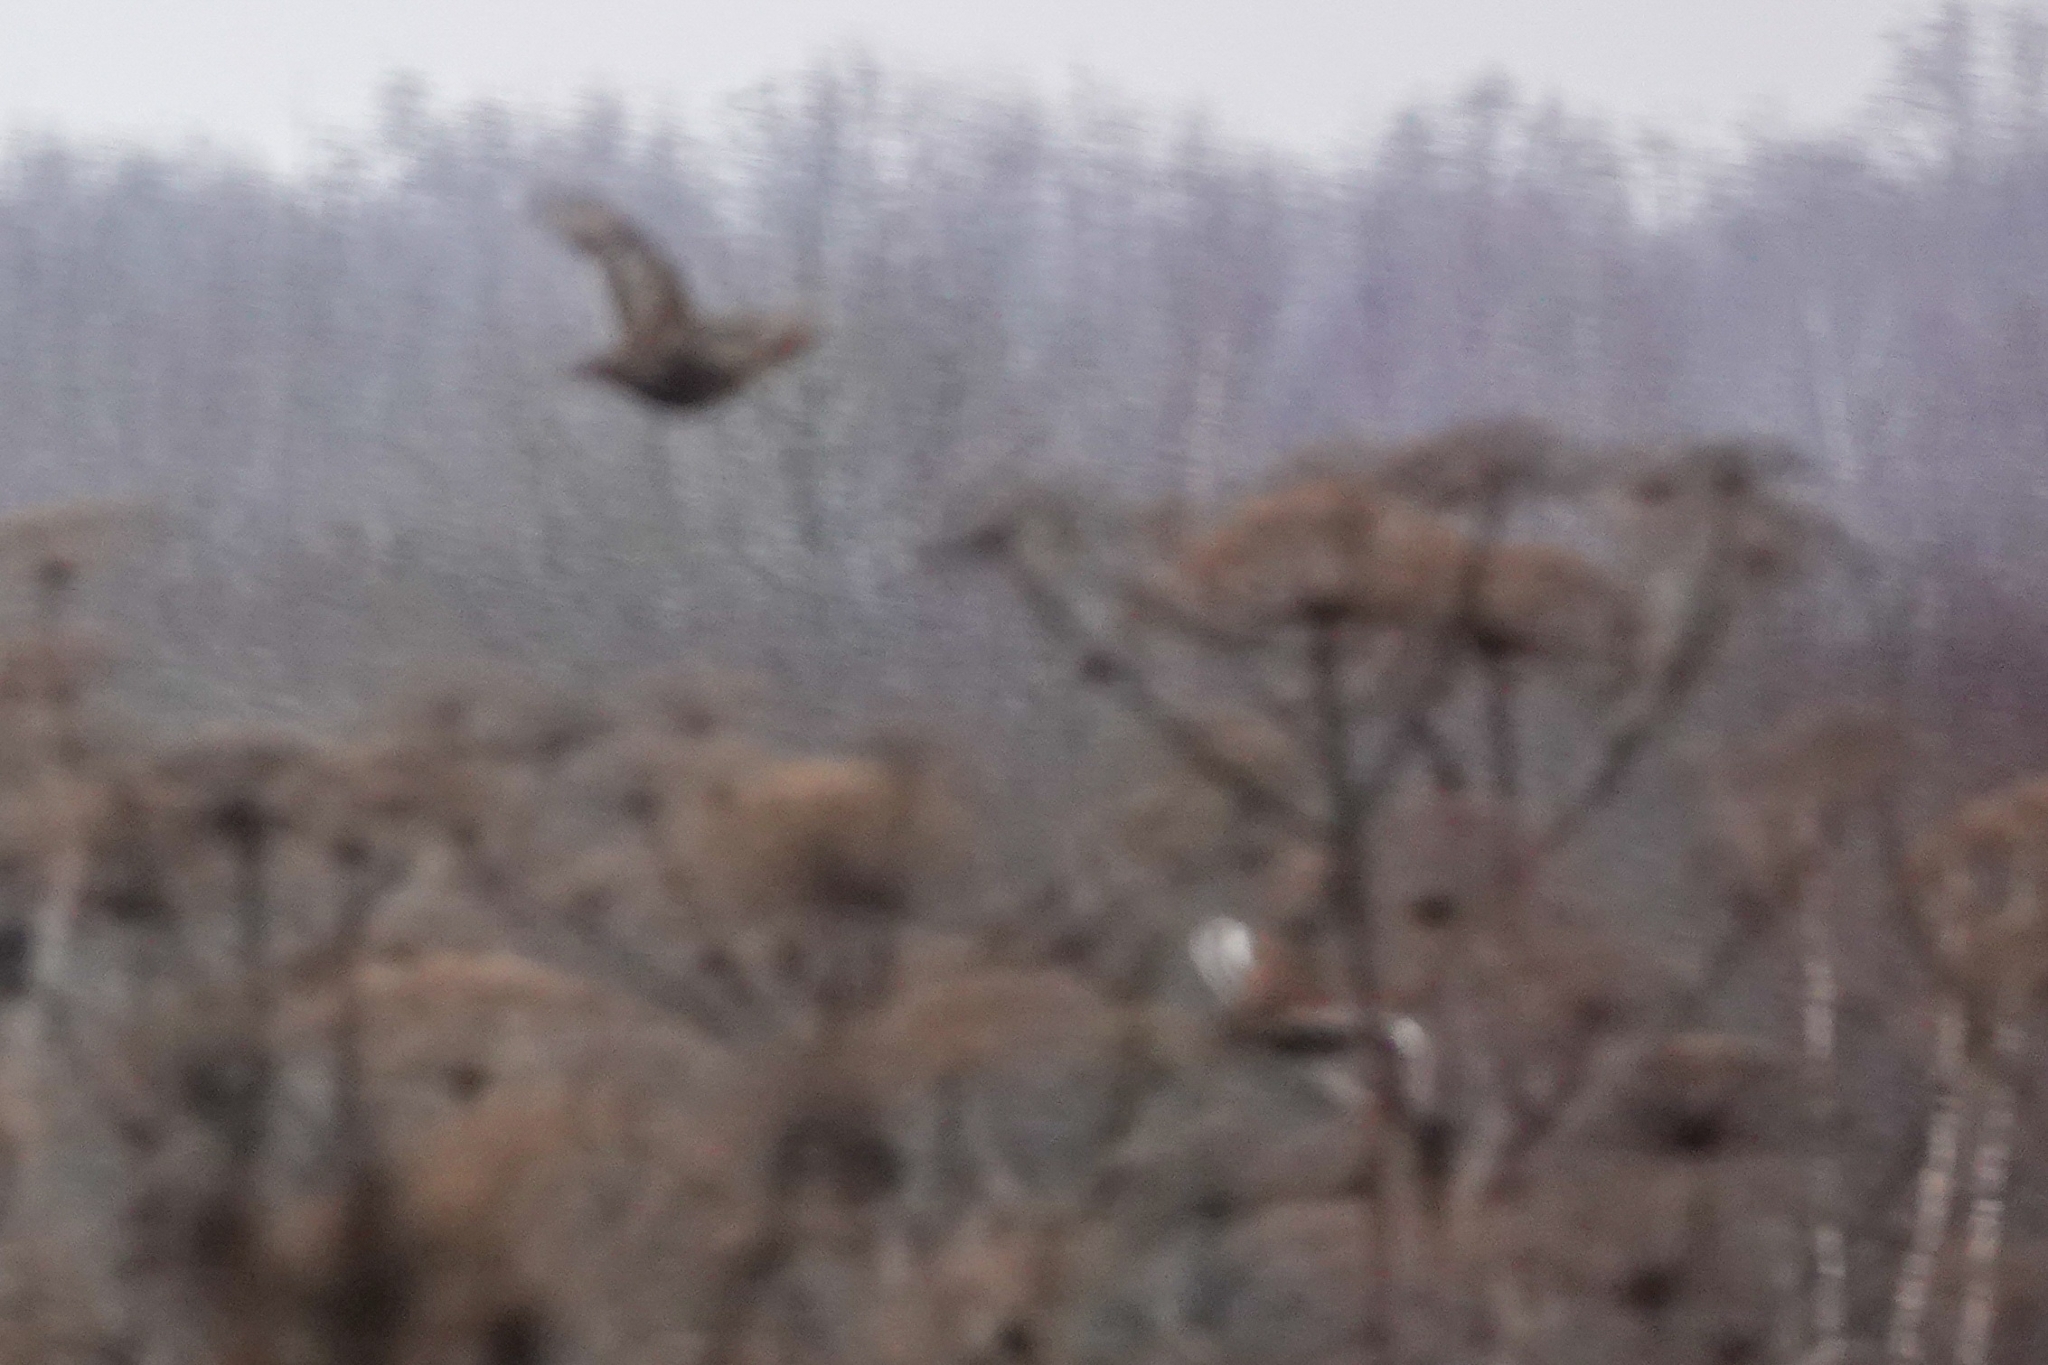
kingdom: Animalia
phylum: Chordata
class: Aves
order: Galliformes
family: Phasianidae
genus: Perdix
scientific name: Perdix perdix
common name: Grey partridge
